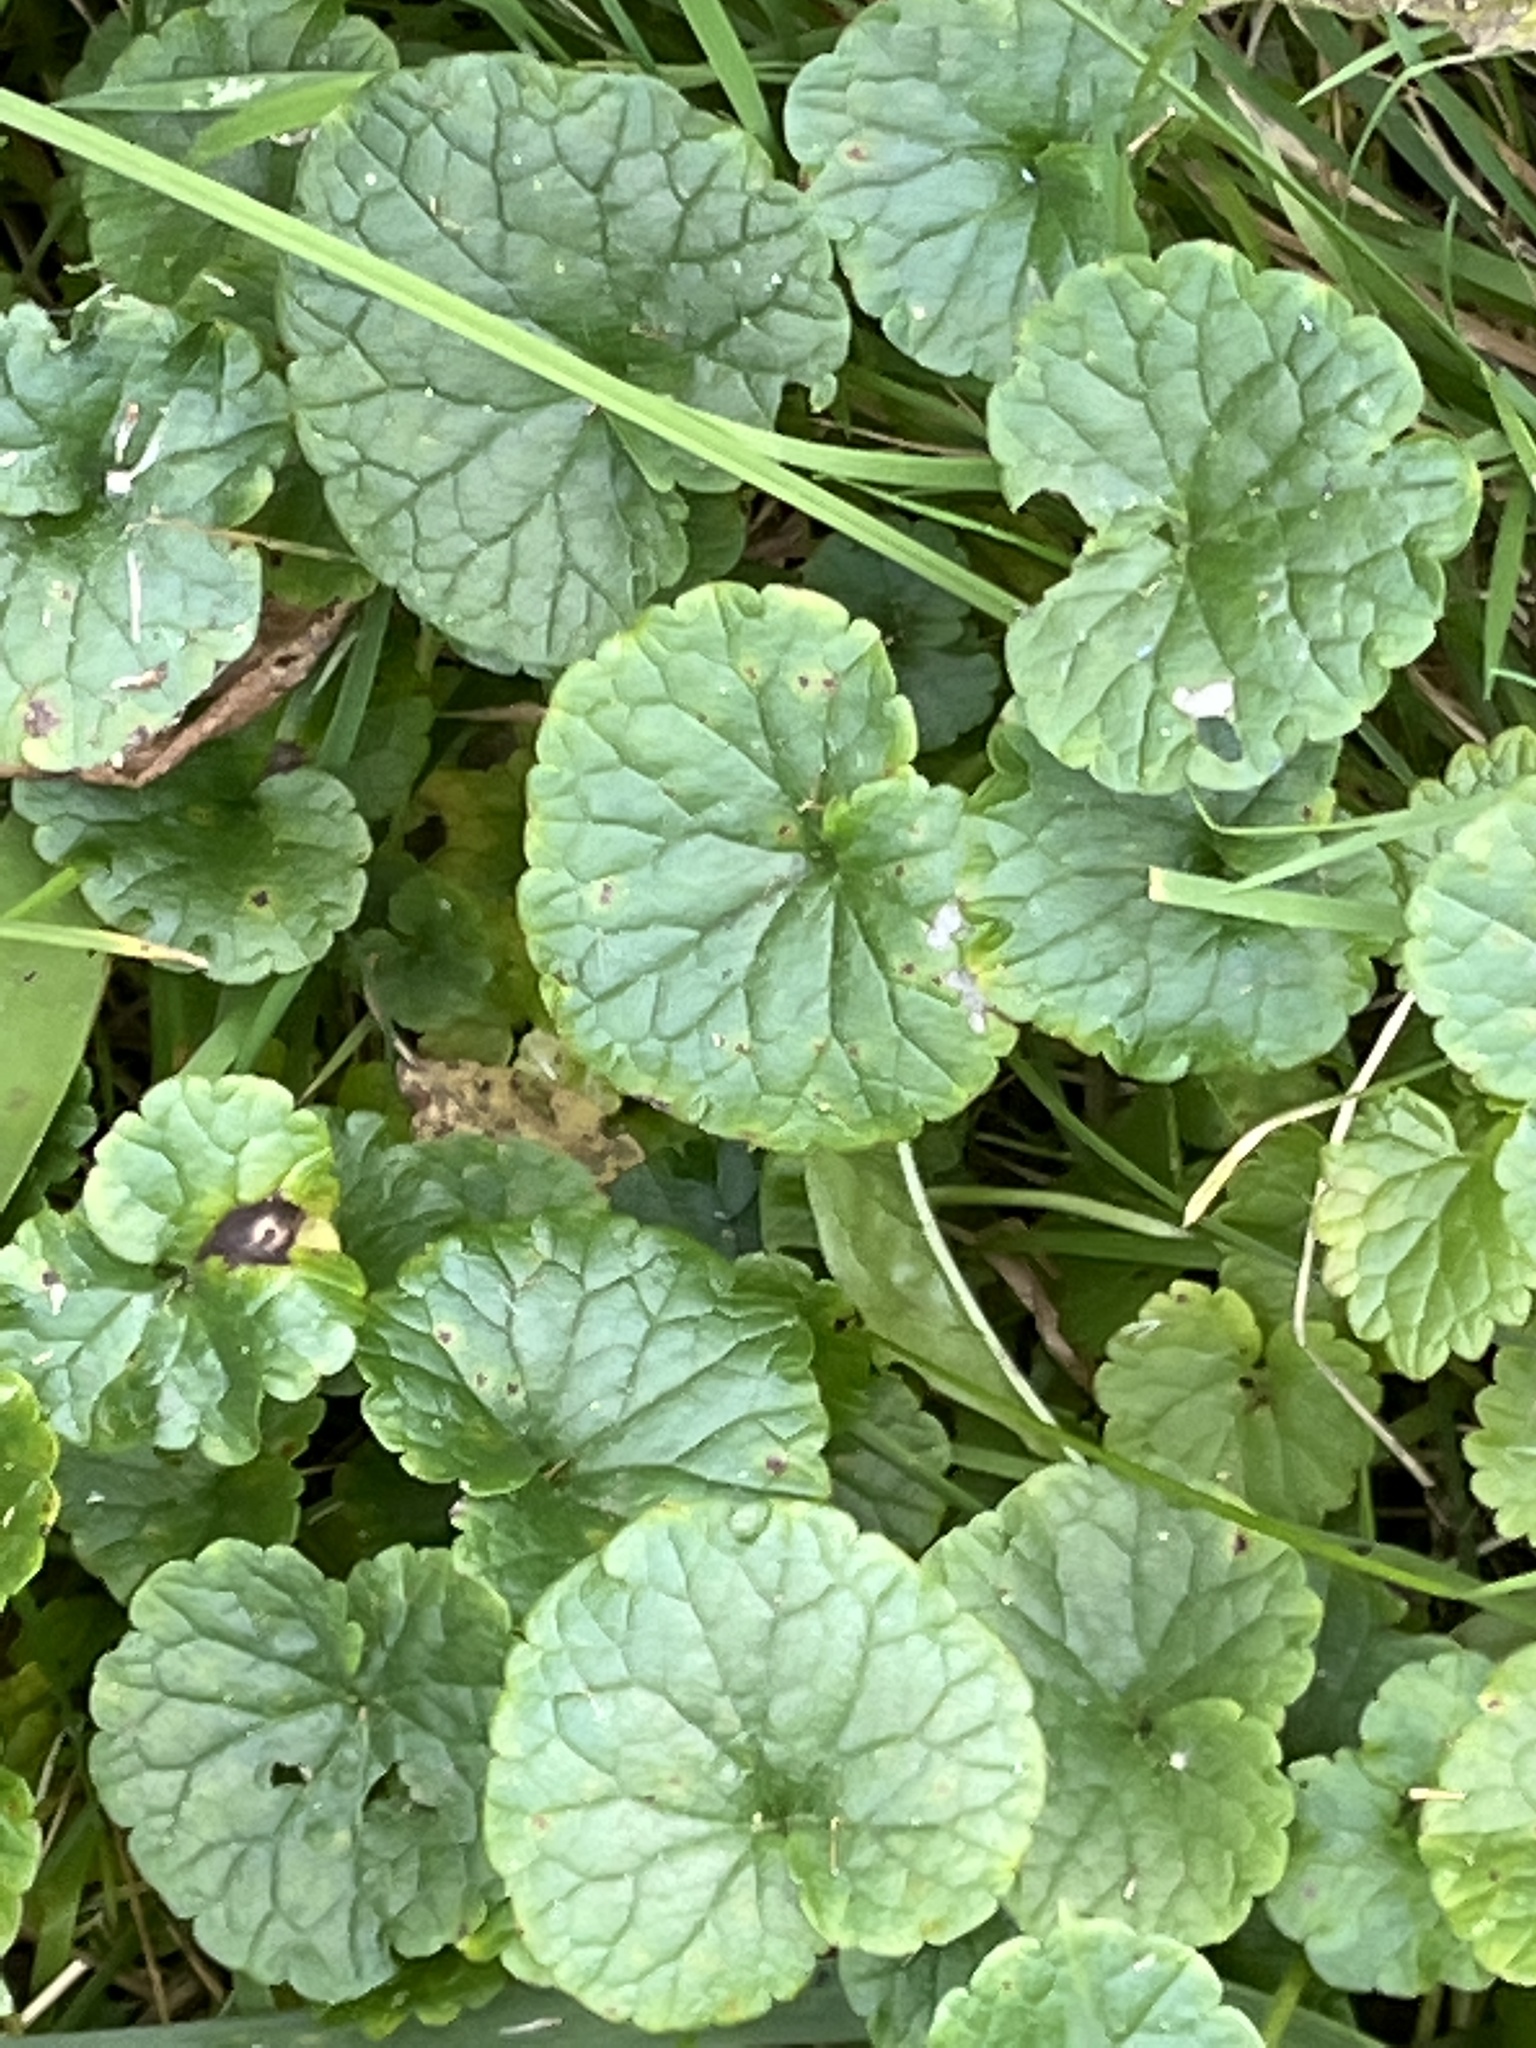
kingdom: Plantae
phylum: Tracheophyta
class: Magnoliopsida
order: Lamiales
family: Lamiaceae
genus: Glechoma
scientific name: Glechoma hederacea
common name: Ground ivy
